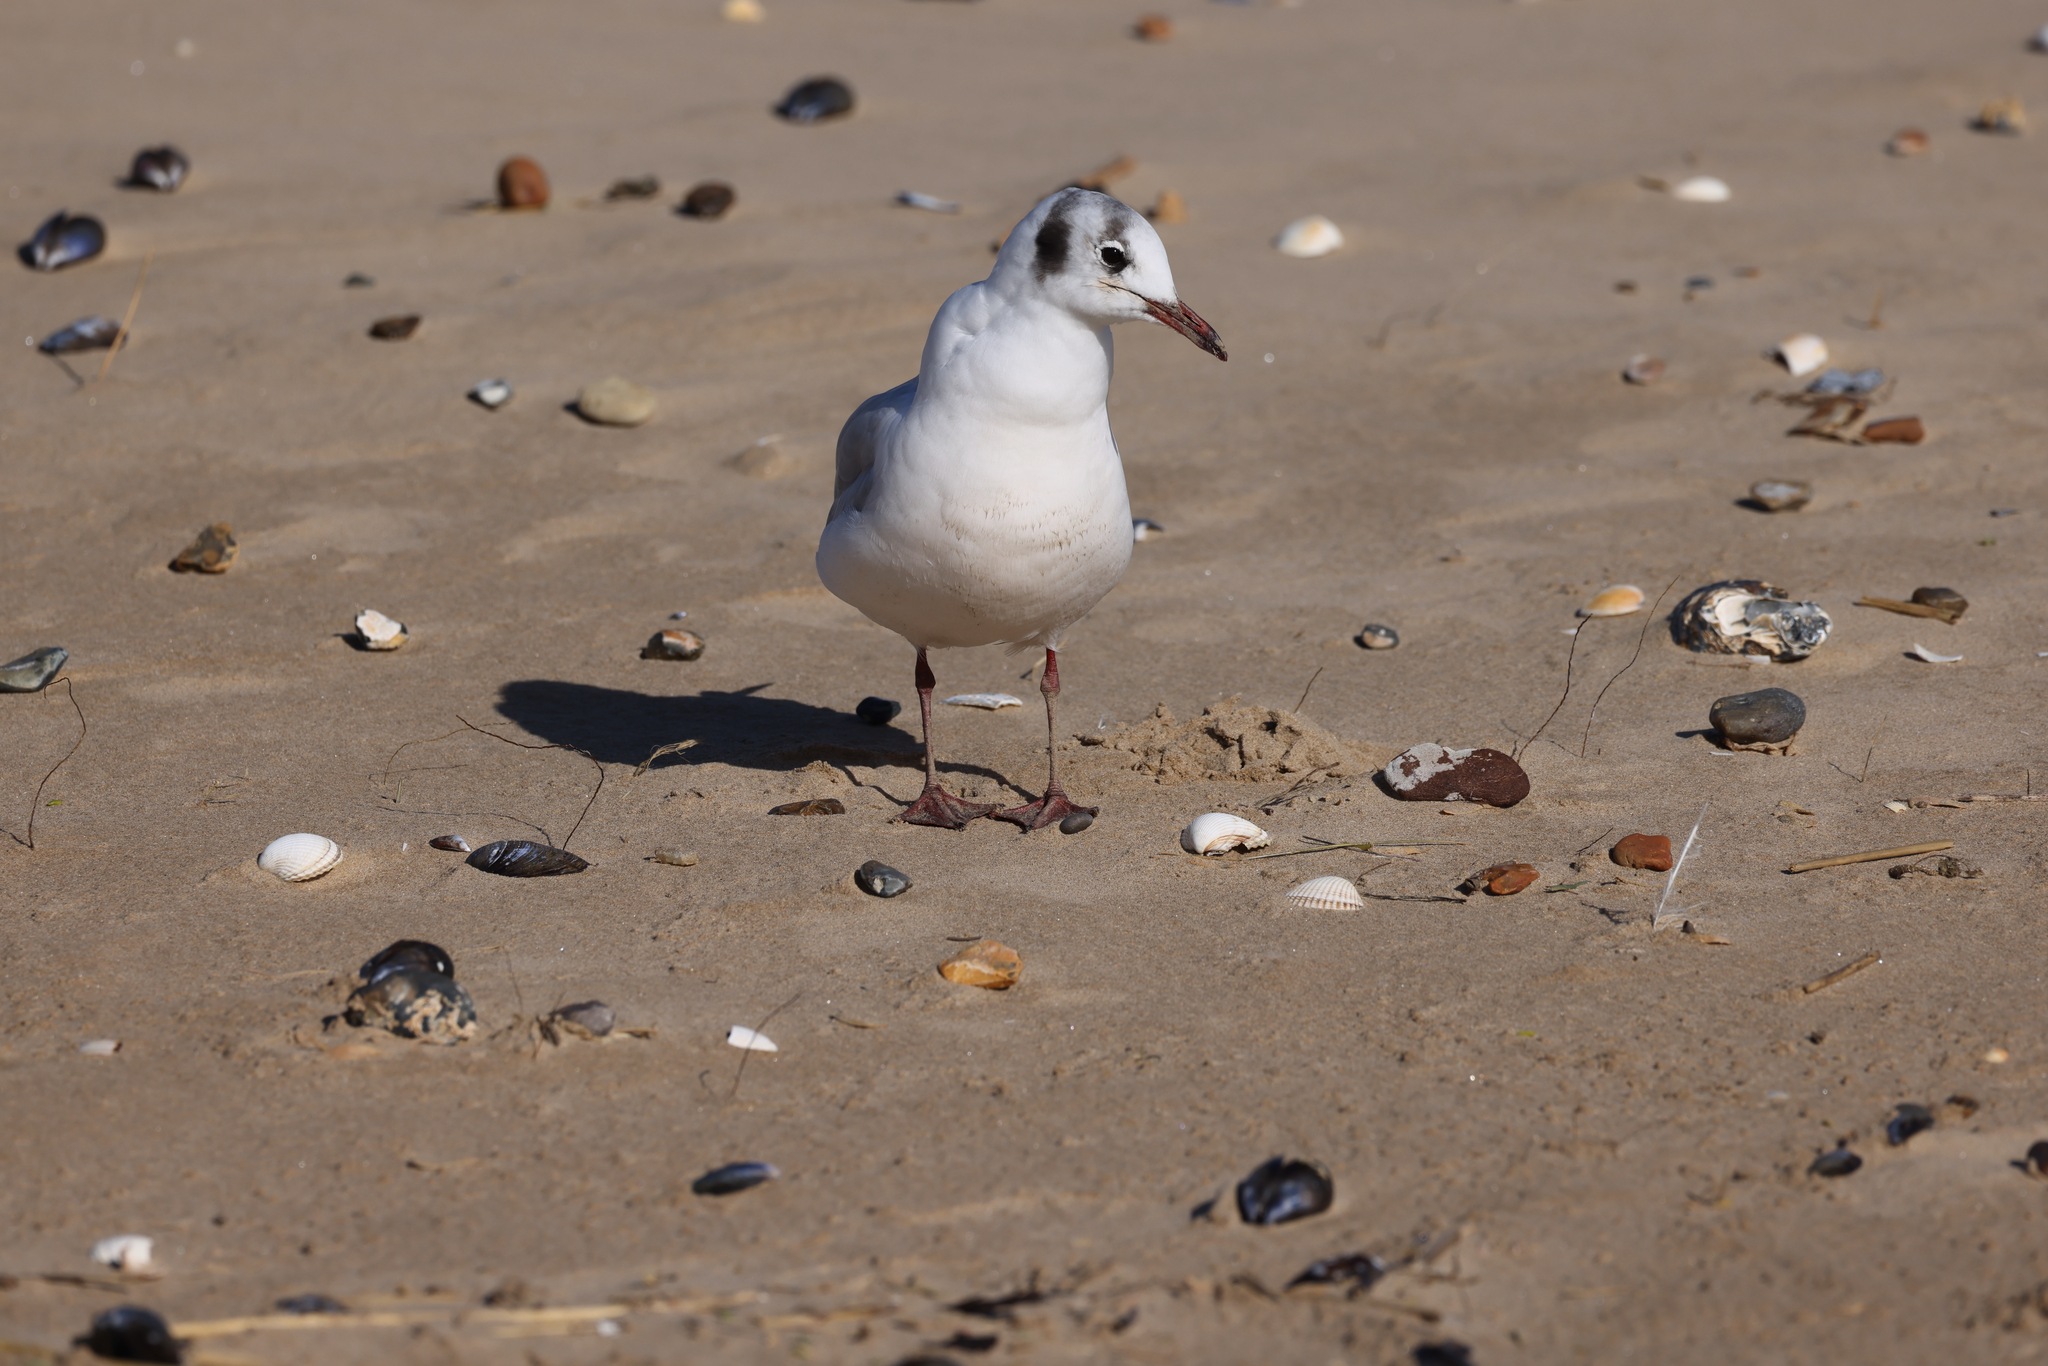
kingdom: Animalia
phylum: Chordata
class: Aves
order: Charadriiformes
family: Laridae
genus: Chroicocephalus
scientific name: Chroicocephalus ridibundus
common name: Black-headed gull
